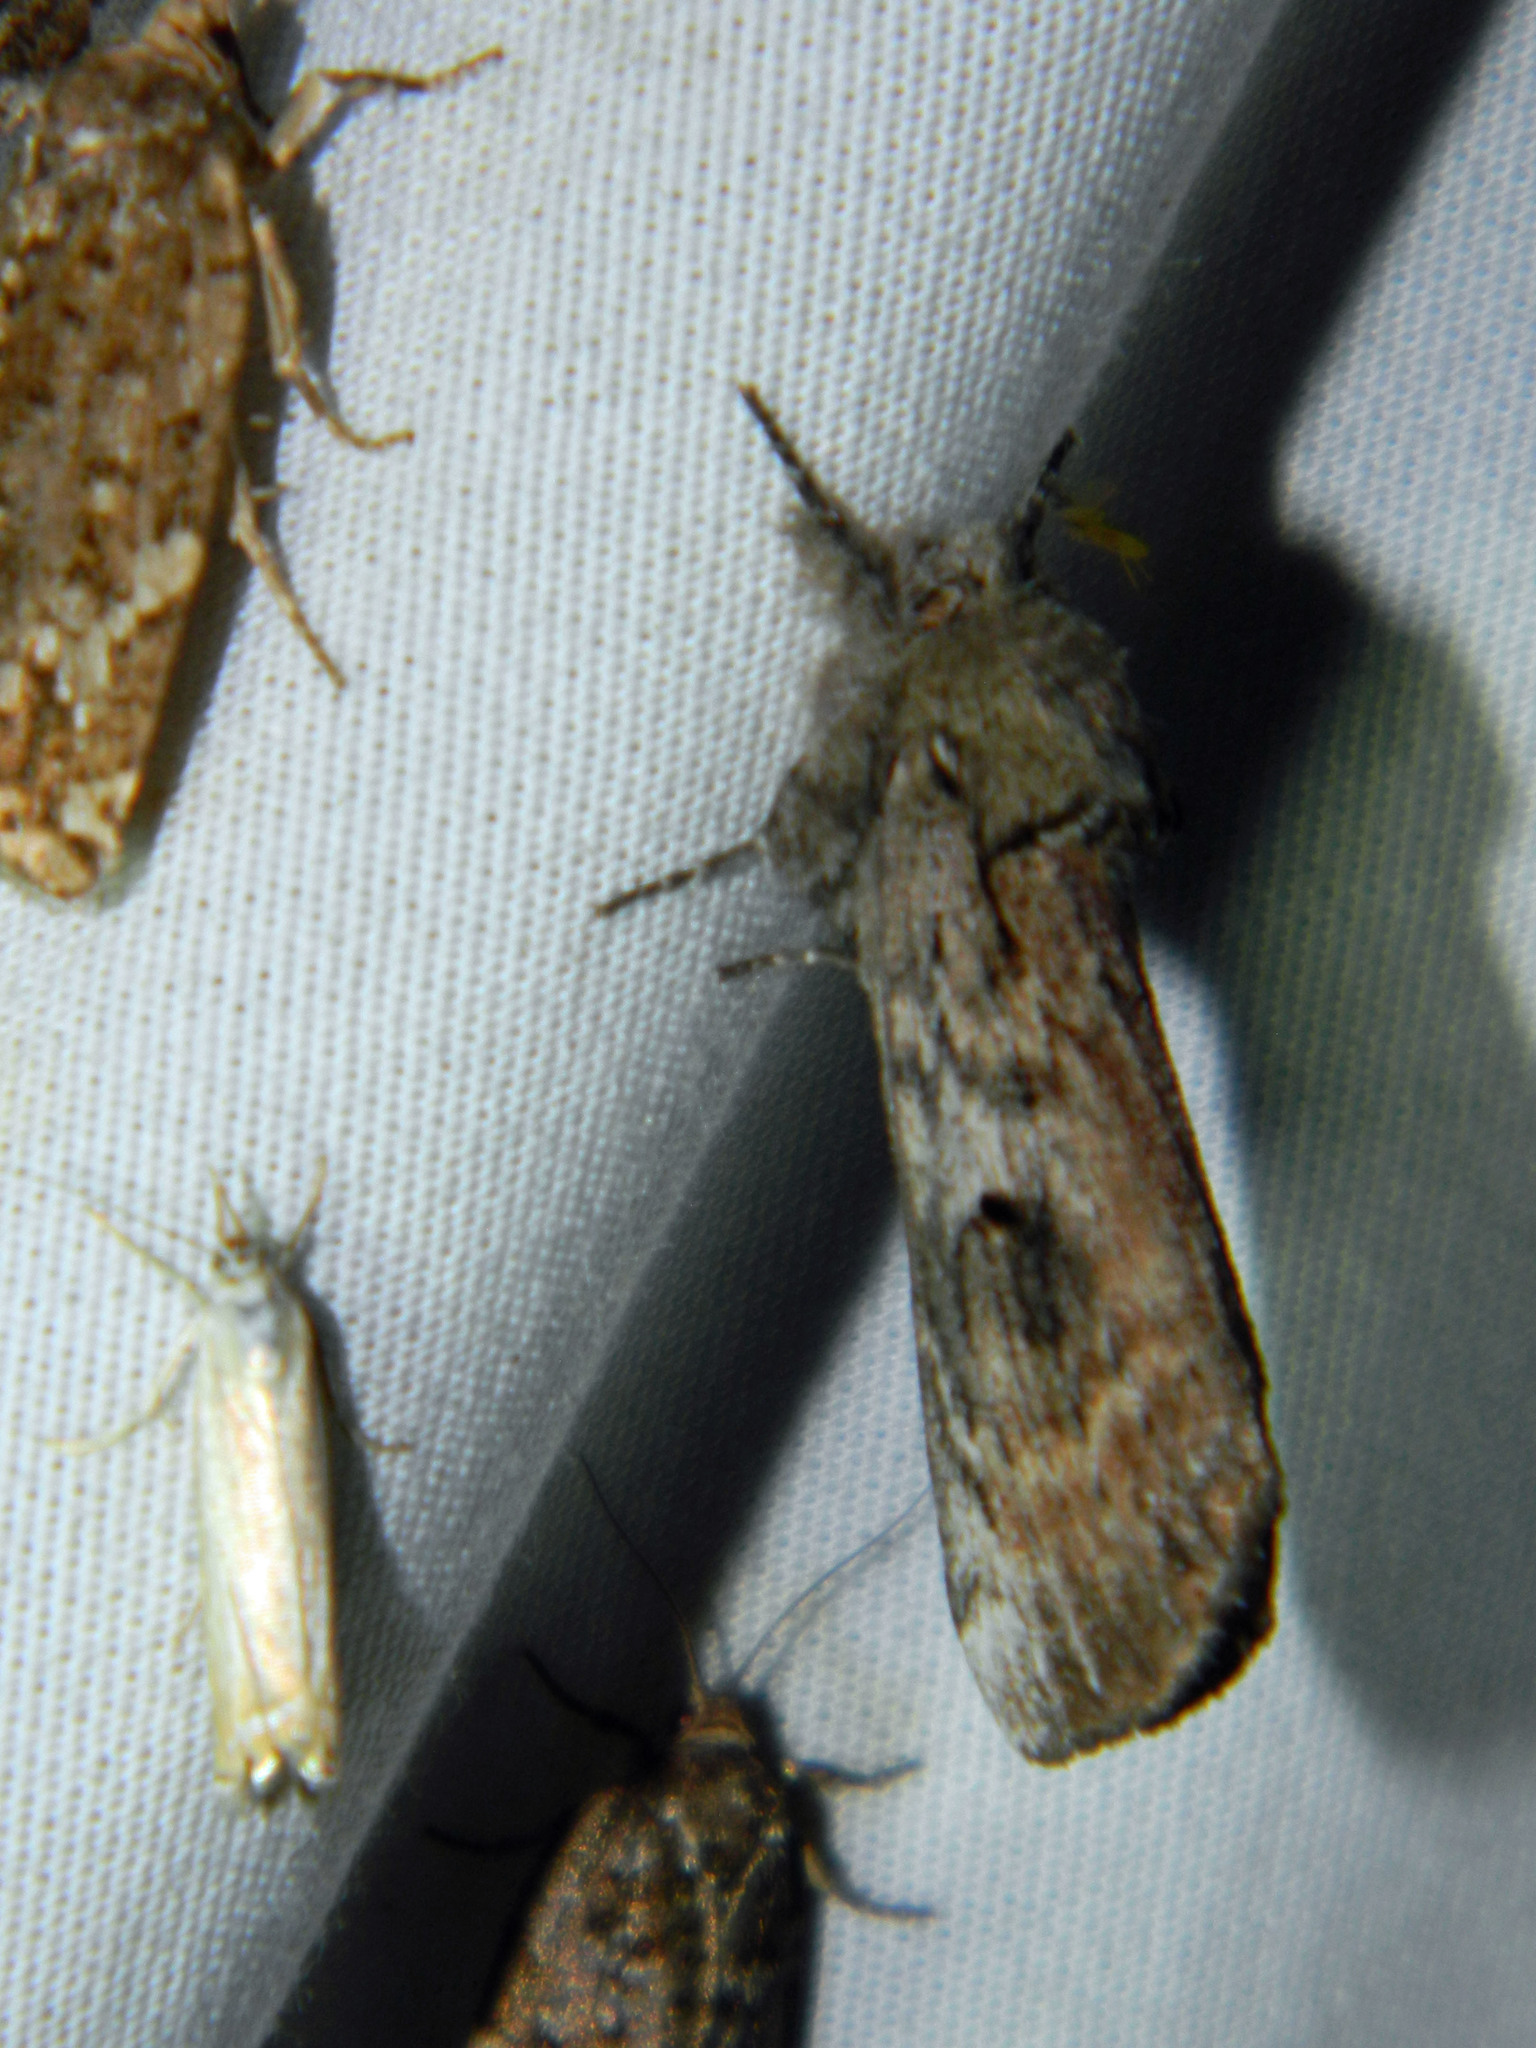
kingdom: Animalia
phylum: Arthropoda
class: Insecta
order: Lepidoptera
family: Notodontidae
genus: Schizura
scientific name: Schizura
